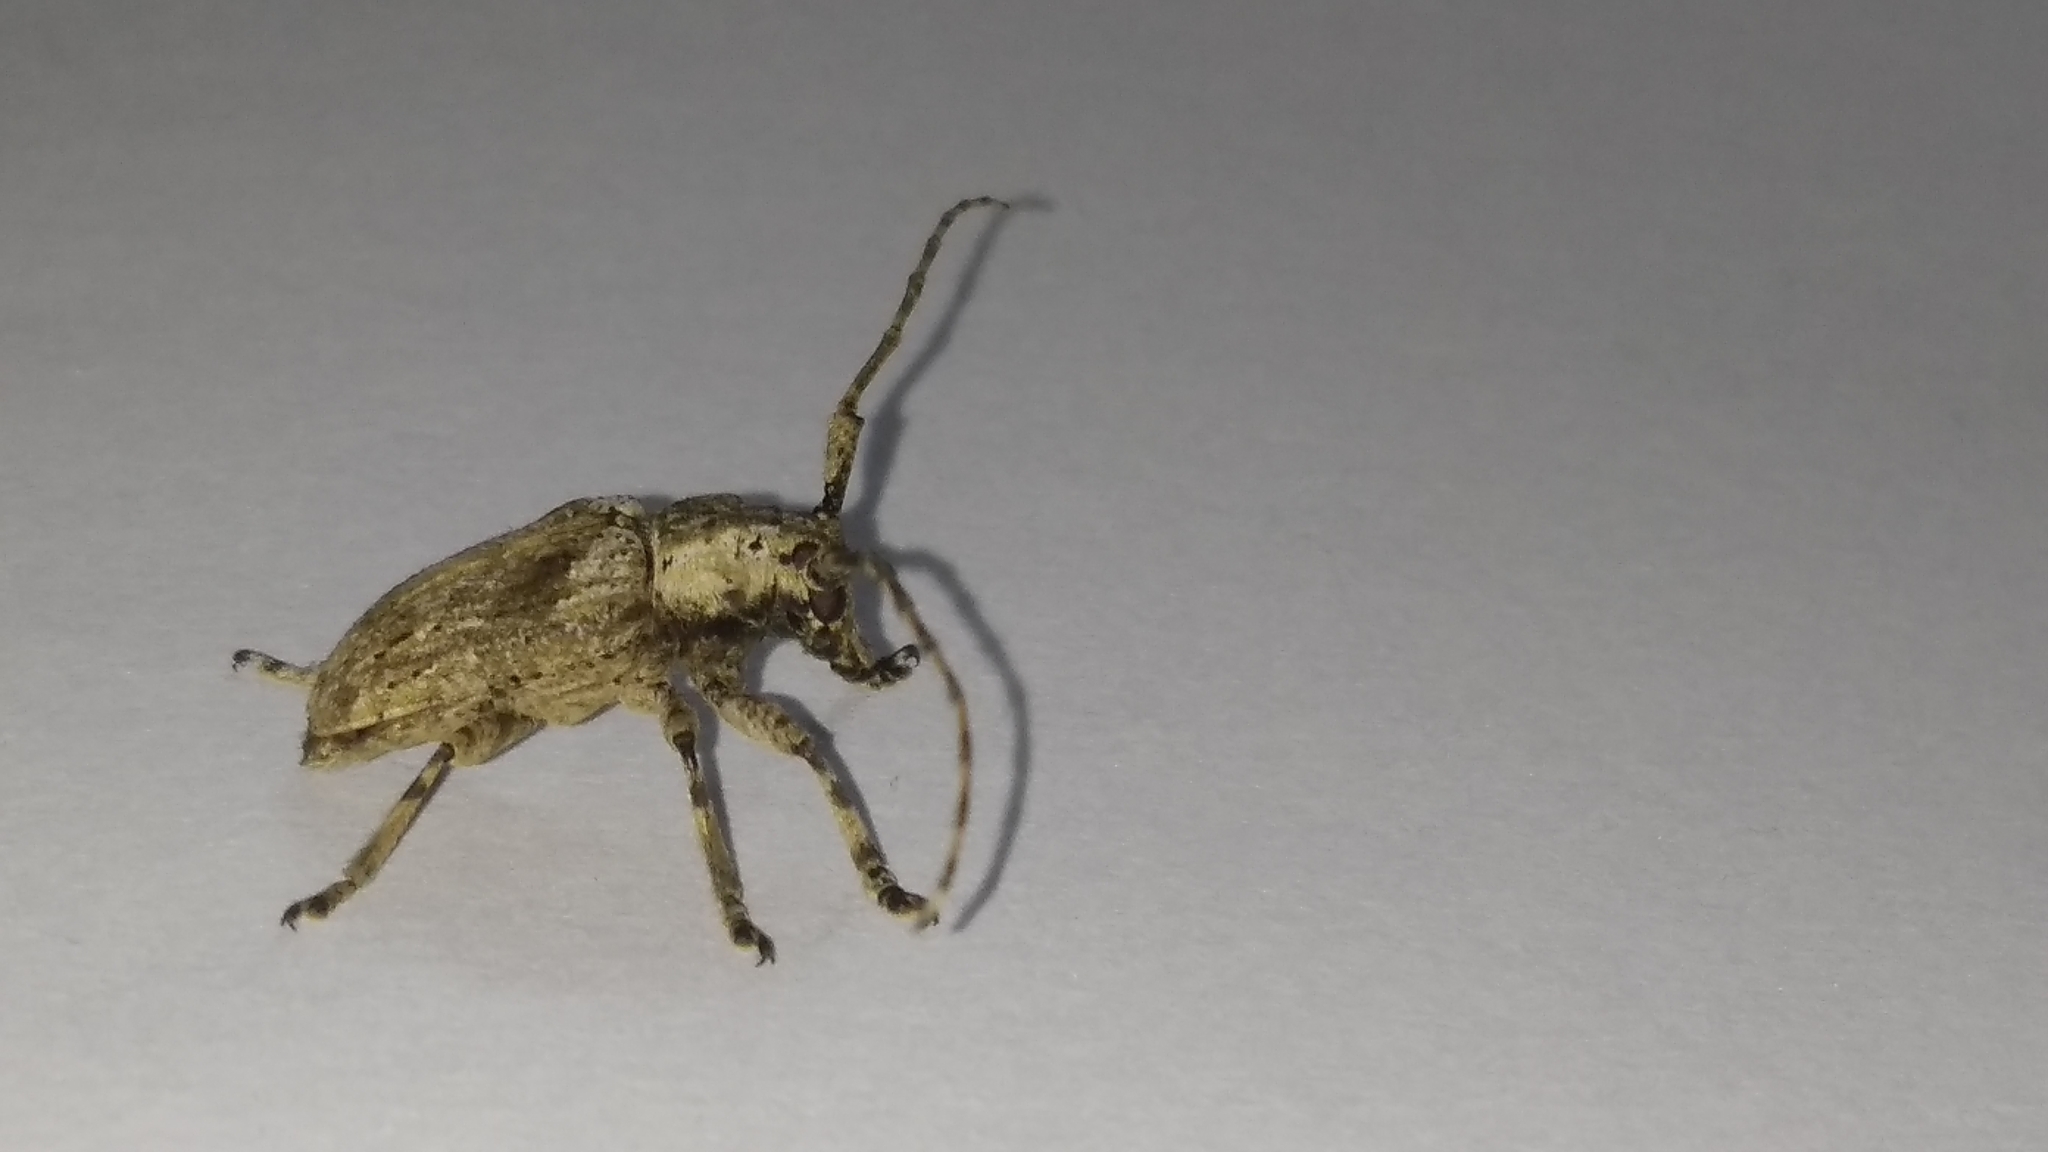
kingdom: Animalia
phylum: Arthropoda
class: Insecta
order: Coleoptera
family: Cerambycidae
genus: Coptops
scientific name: Coptops aedificator
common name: Long-horned beetle
